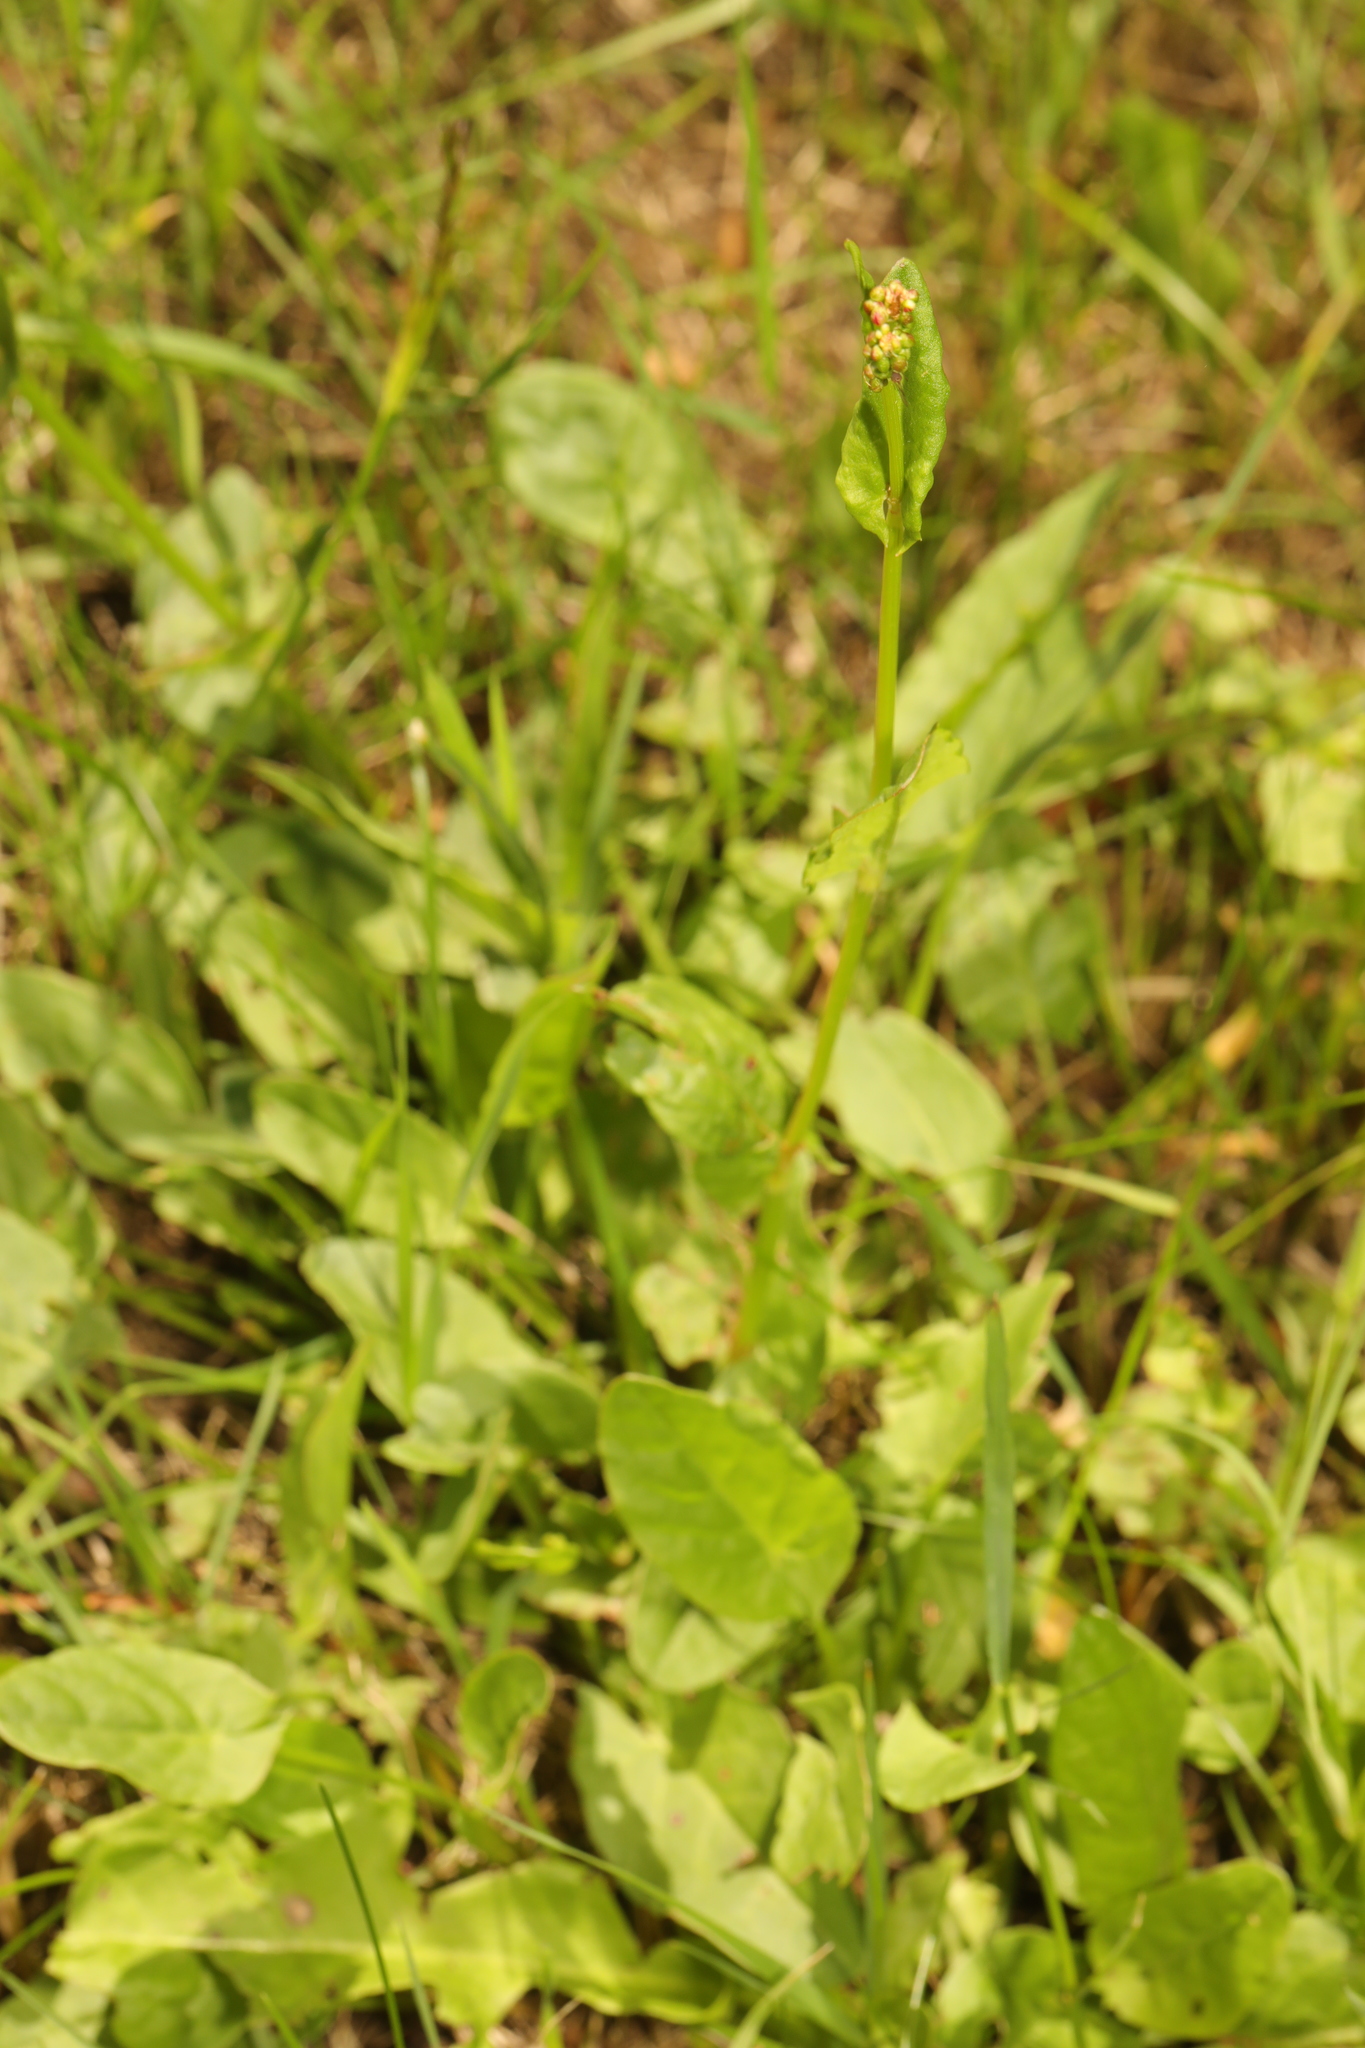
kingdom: Plantae
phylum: Tracheophyta
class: Magnoliopsida
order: Caryophyllales
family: Polygonaceae
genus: Rumex
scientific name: Rumex acetosa
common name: Garden sorrel
